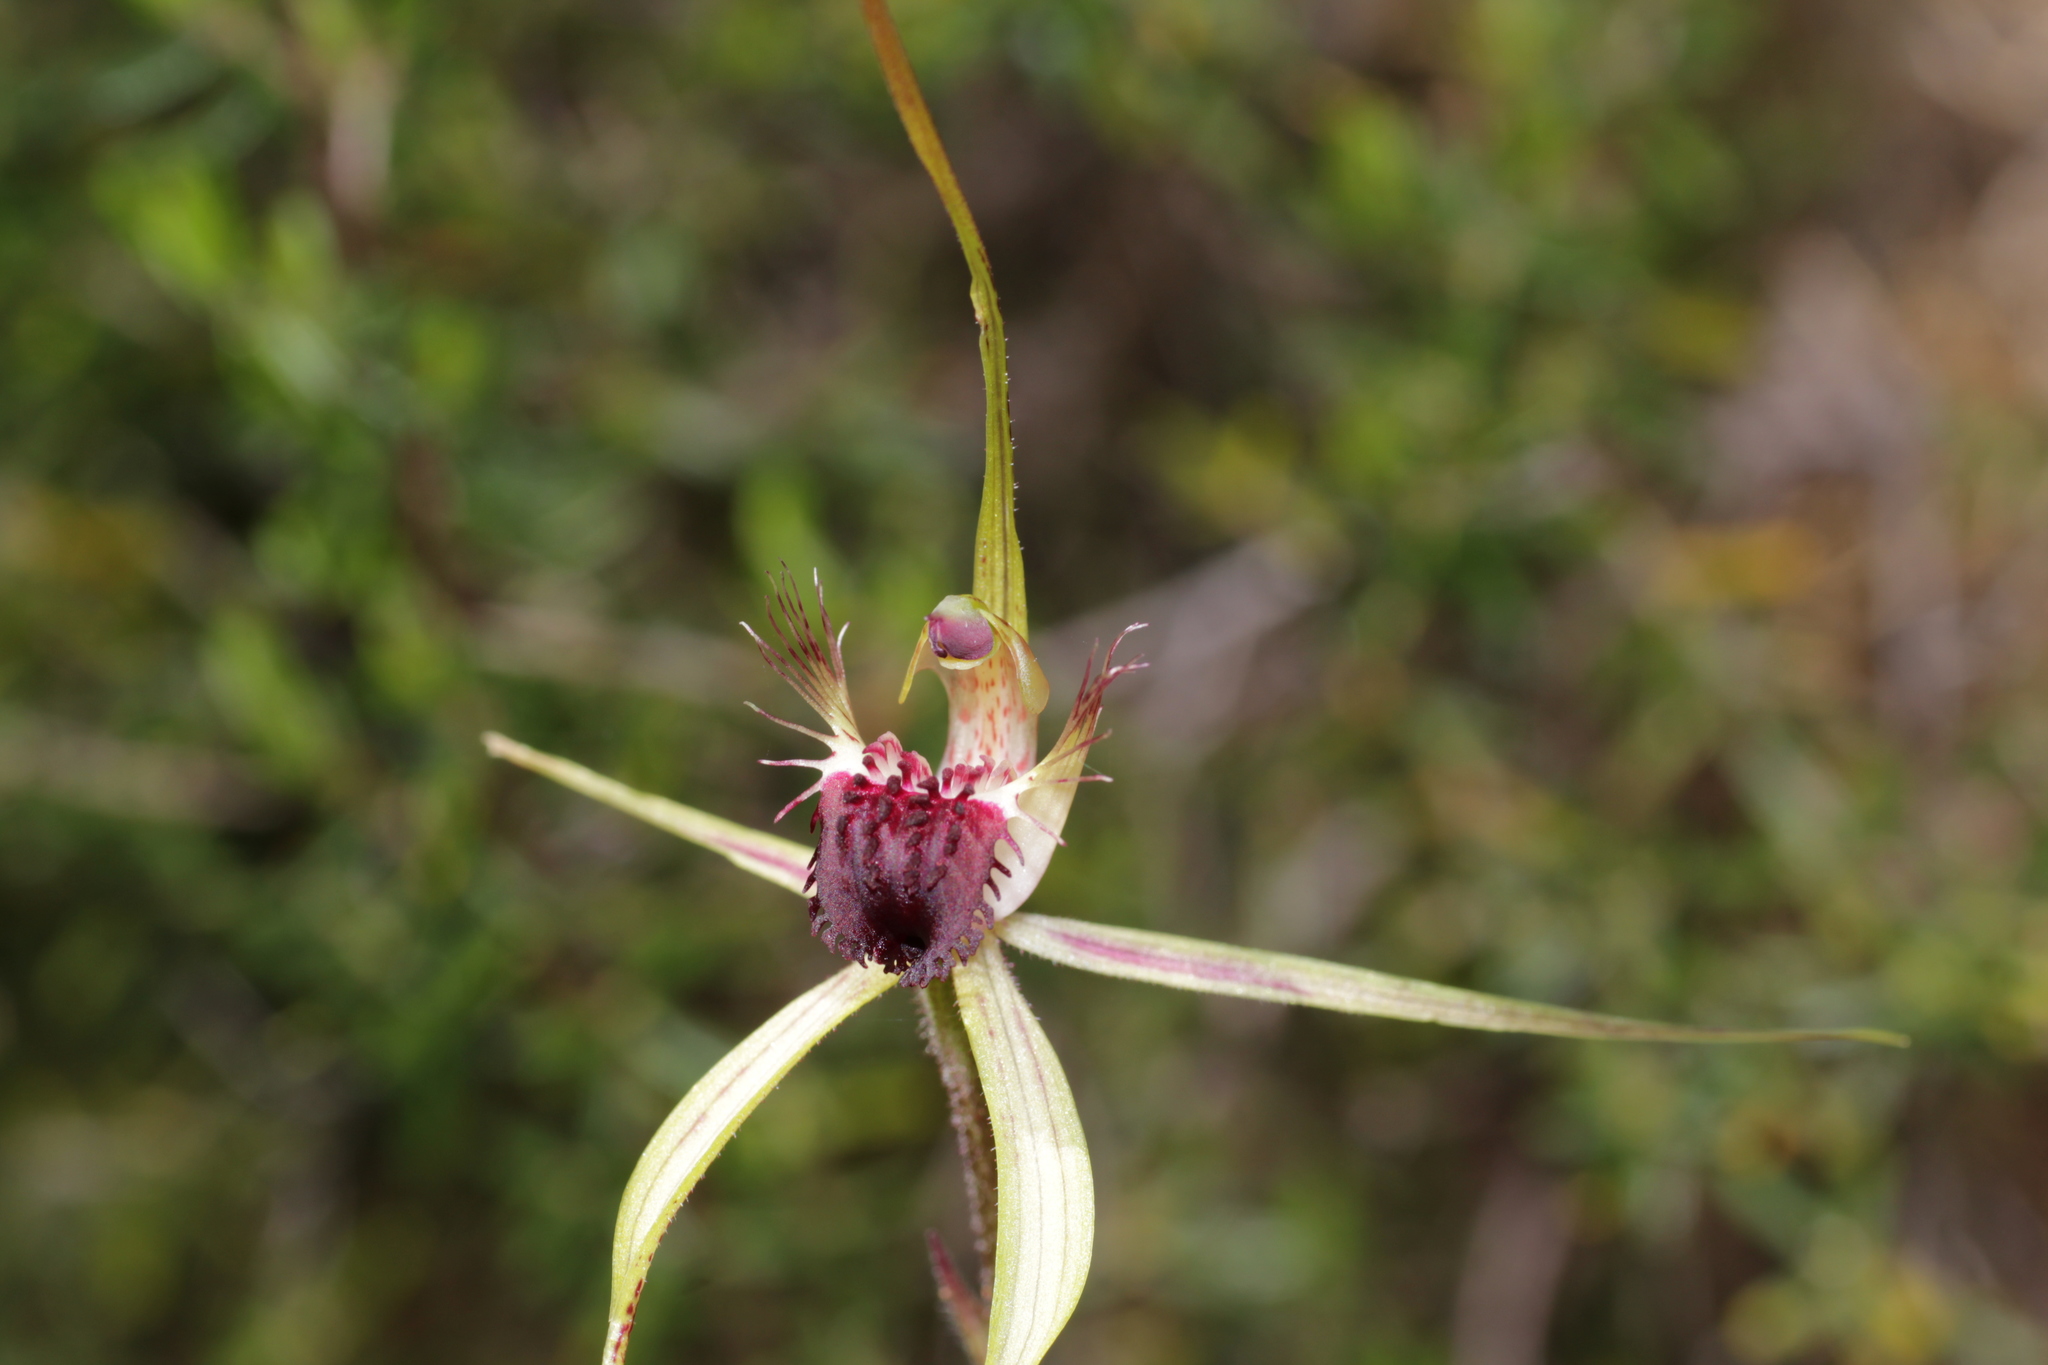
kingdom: Plantae
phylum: Tracheophyta
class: Liliopsida
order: Asparagales
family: Orchidaceae
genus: Caladenia
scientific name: Caladenia thinicola
